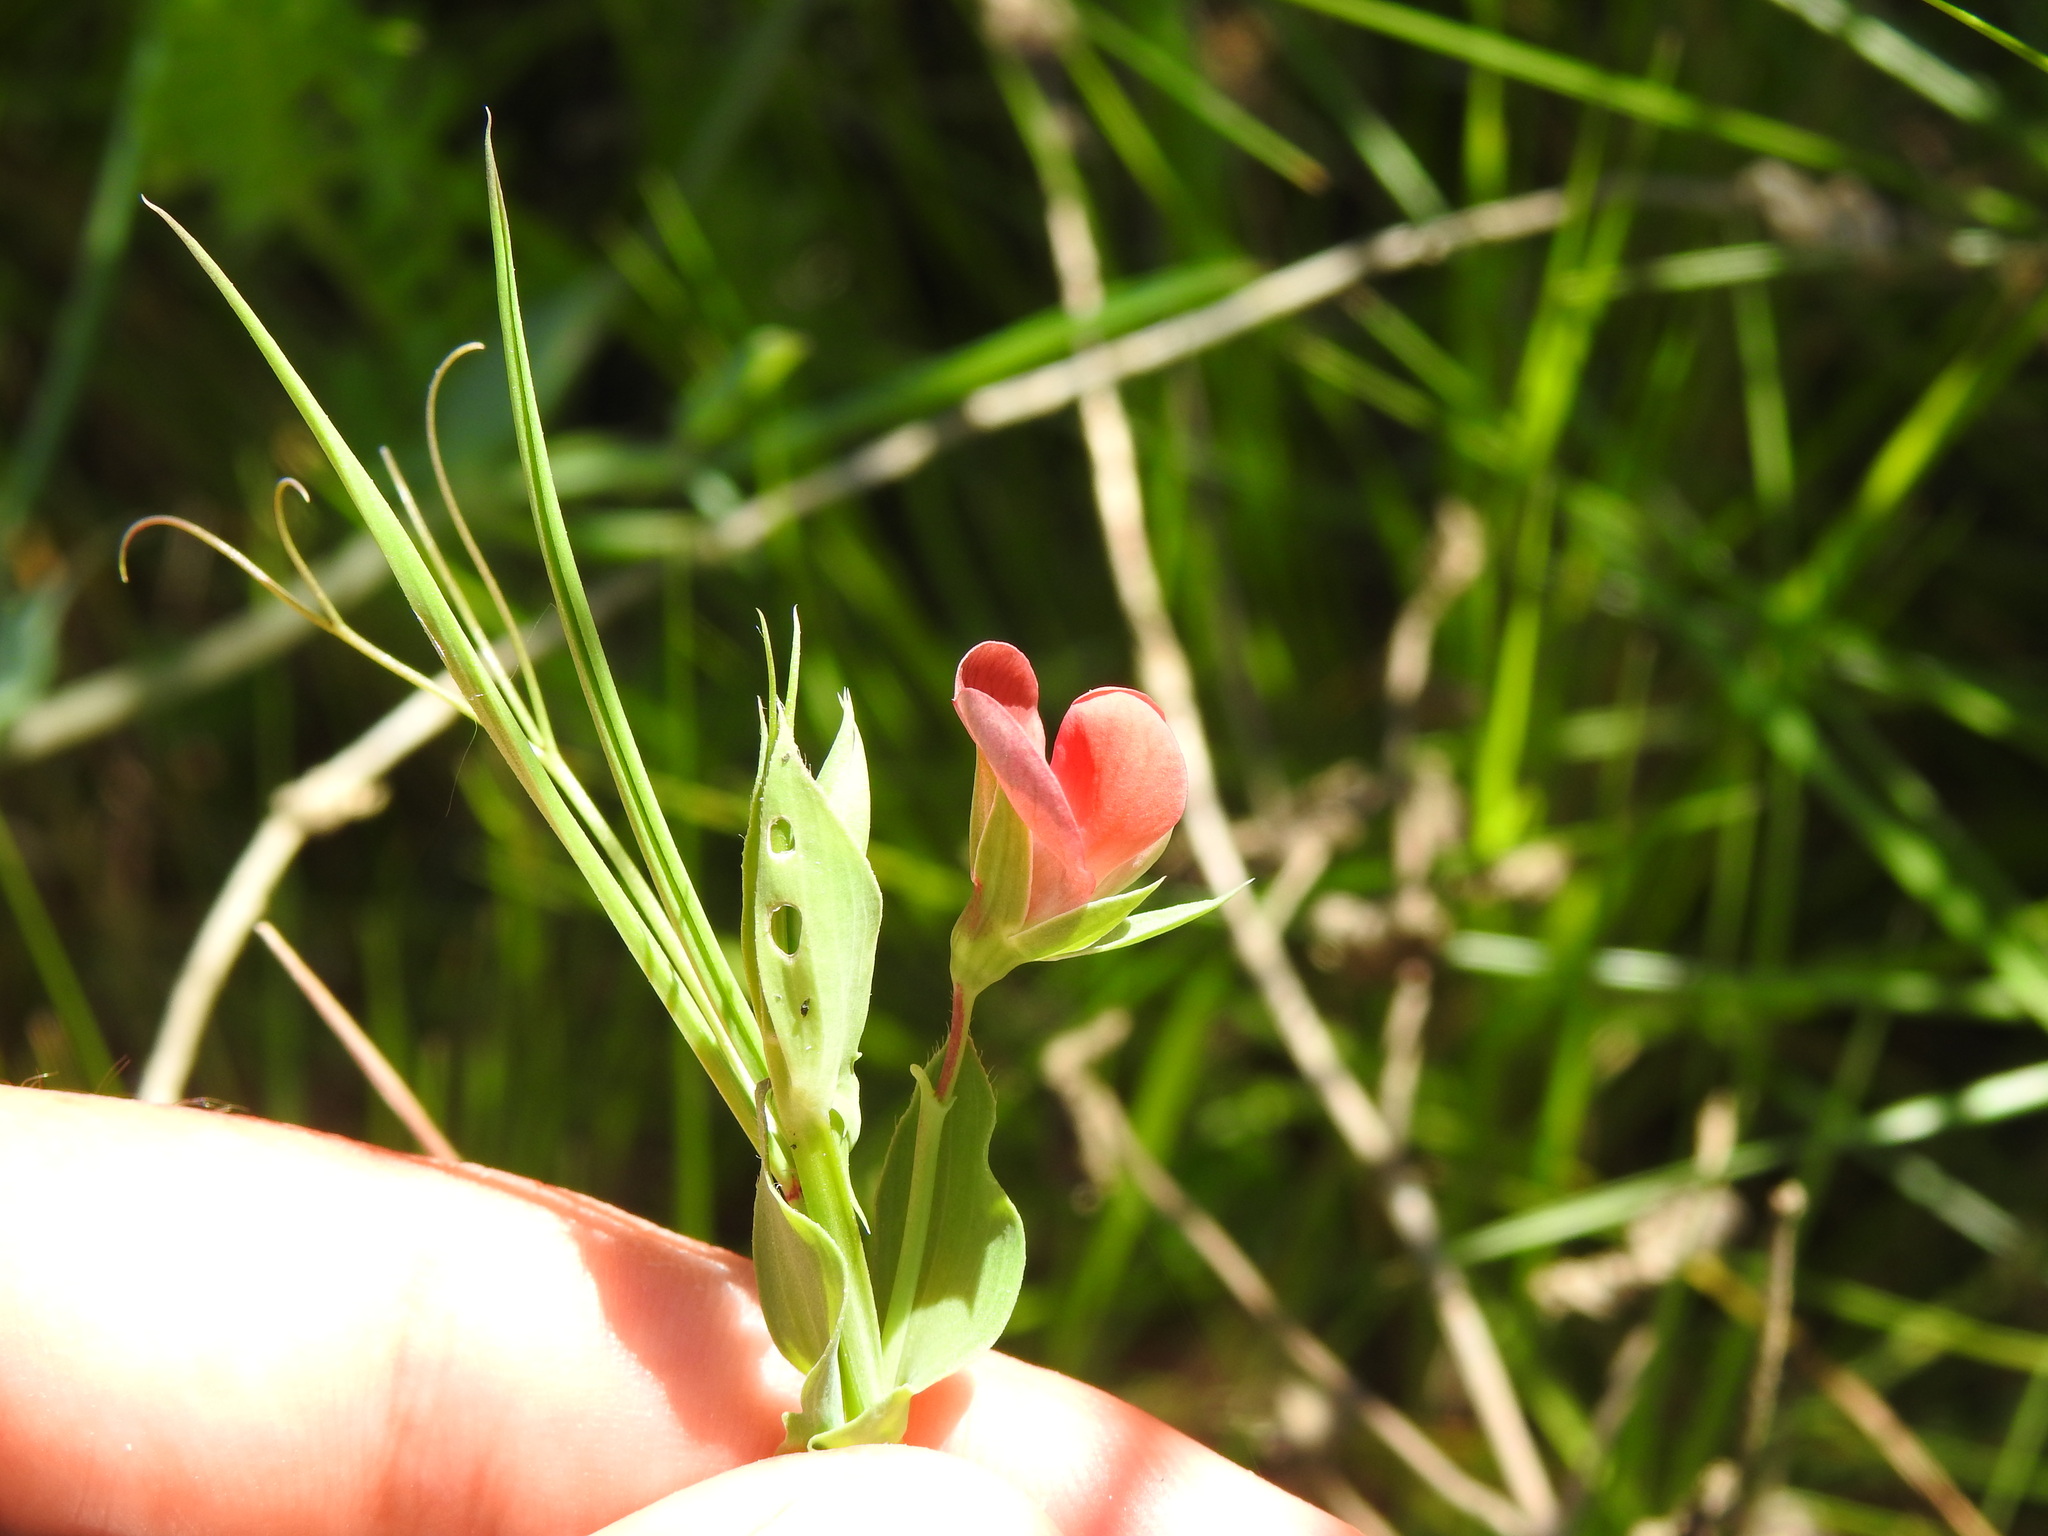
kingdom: Plantae
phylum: Tracheophyta
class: Magnoliopsida
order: Fabales
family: Fabaceae
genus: Lathyrus
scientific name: Lathyrus cicera
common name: Red vetchling
